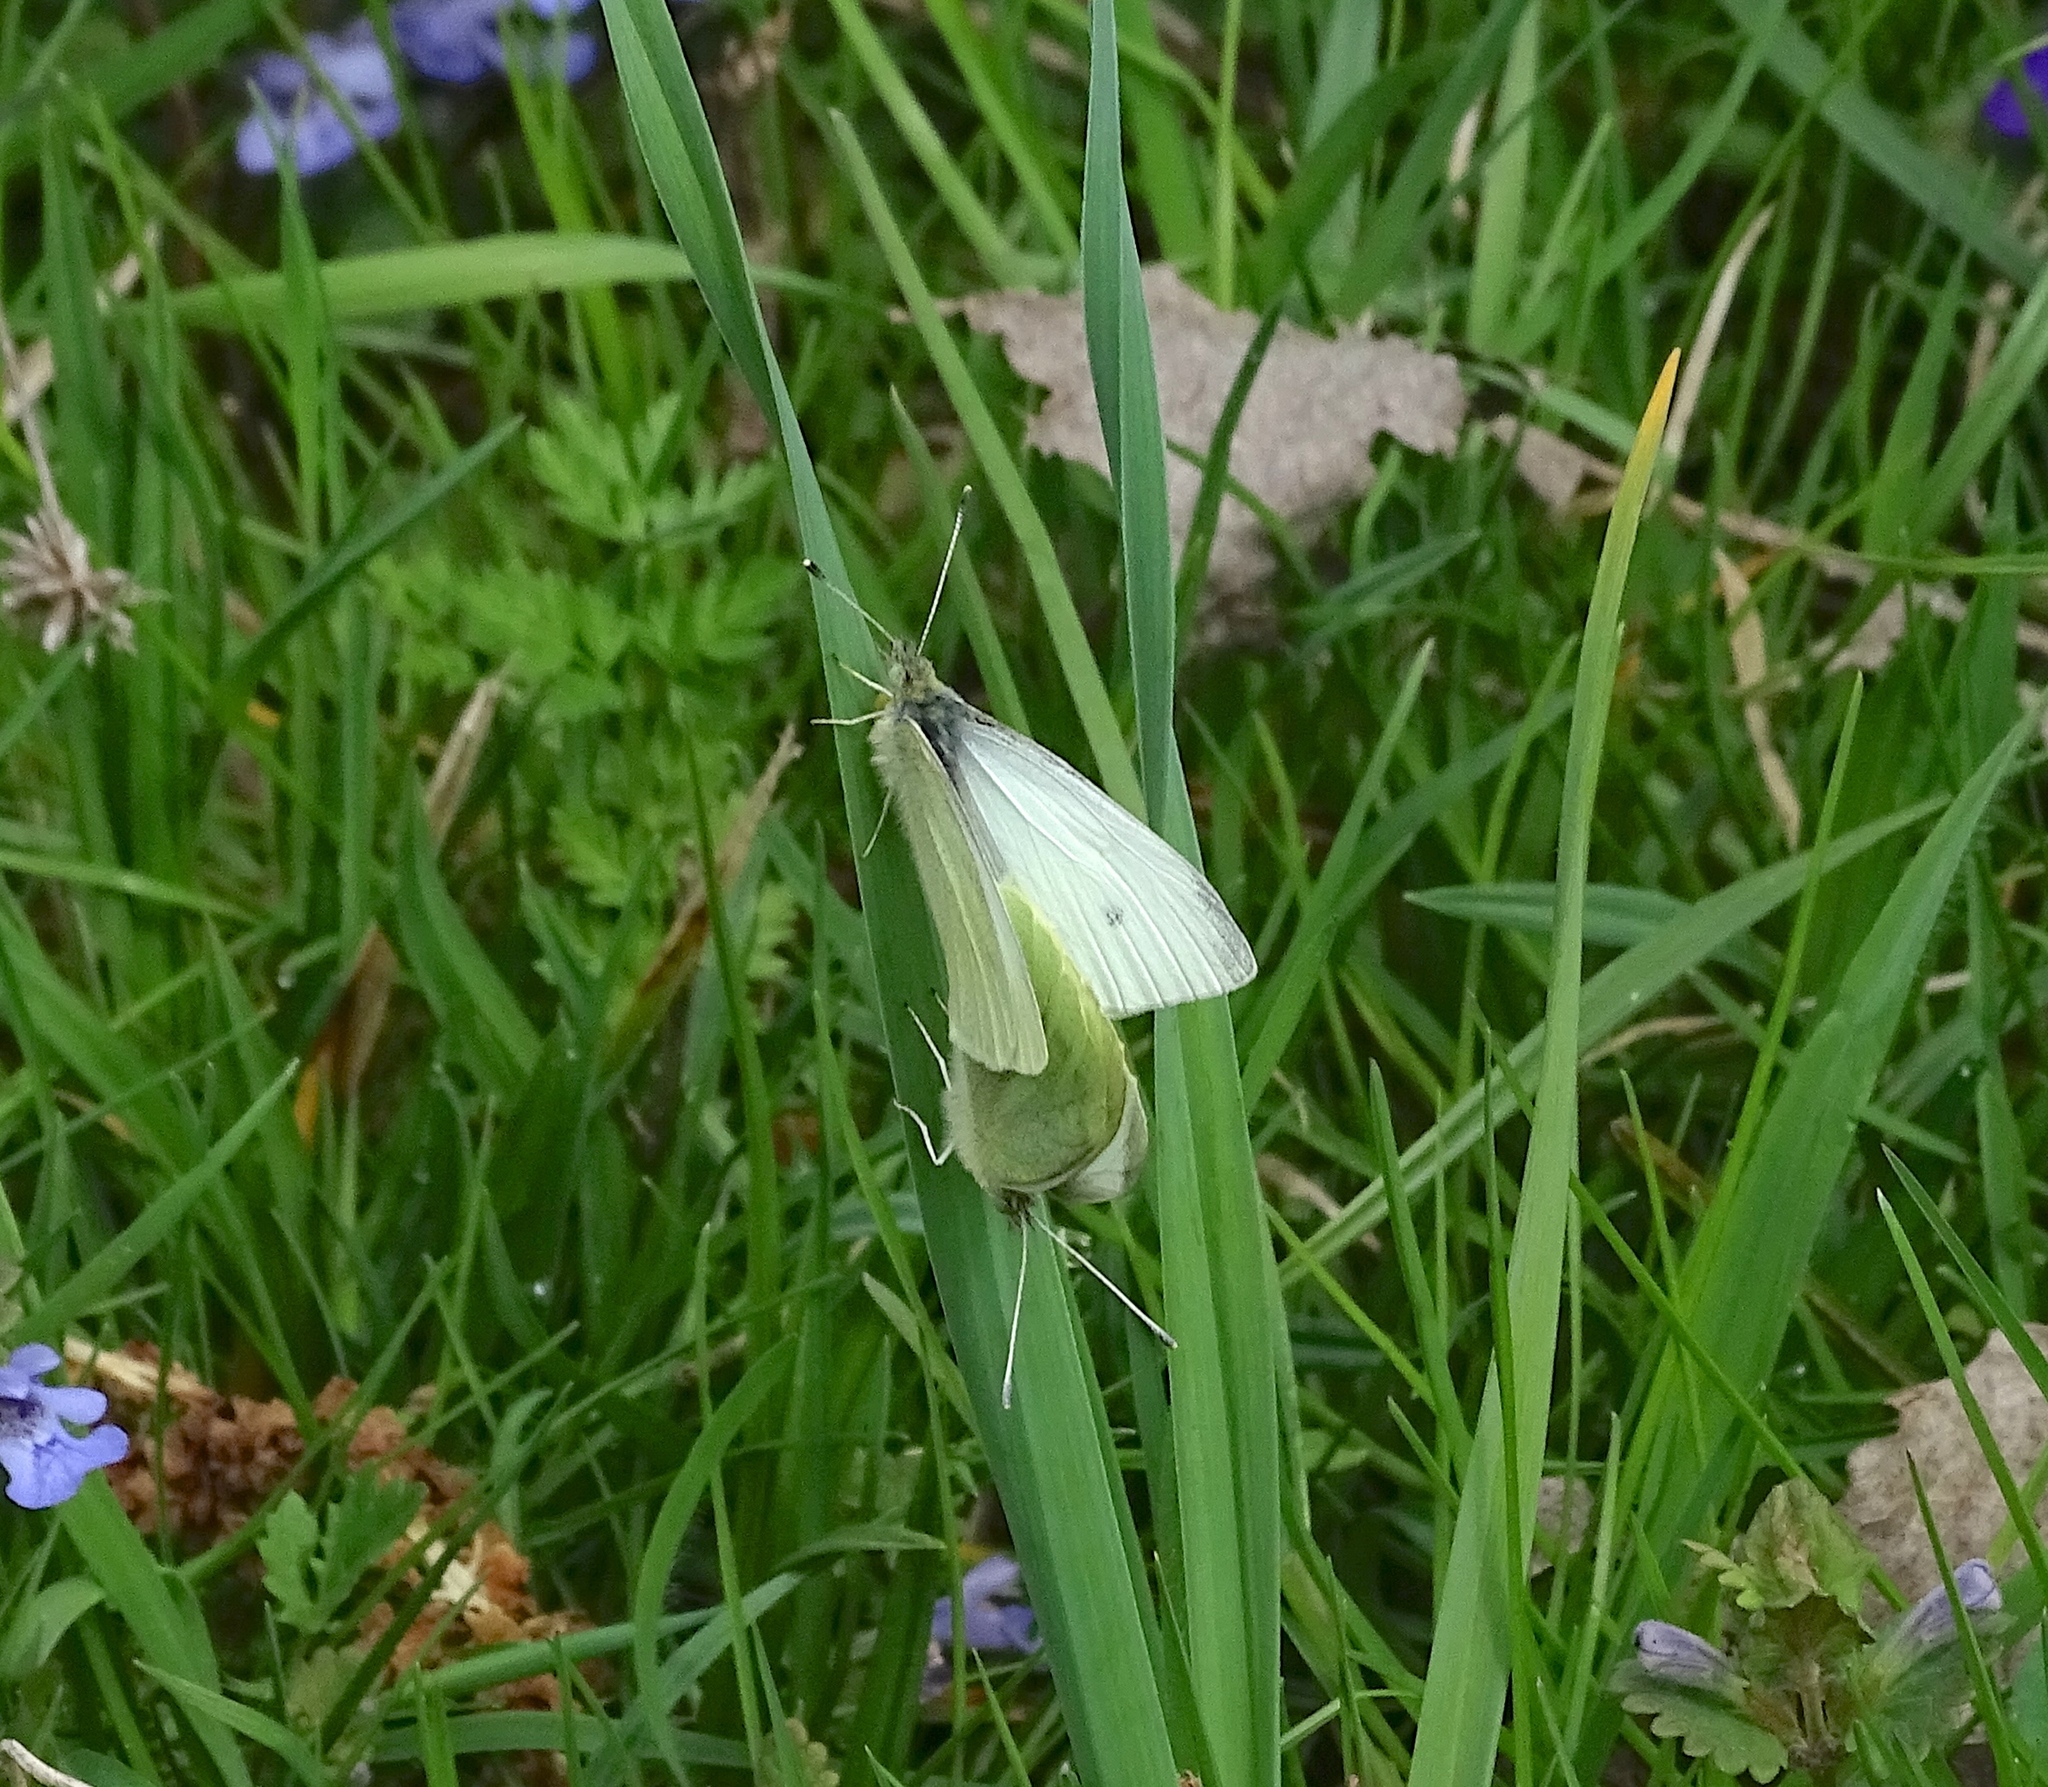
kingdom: Animalia
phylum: Arthropoda
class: Insecta
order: Lepidoptera
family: Pieridae
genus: Pieris
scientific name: Pieris rapae
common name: Small white
